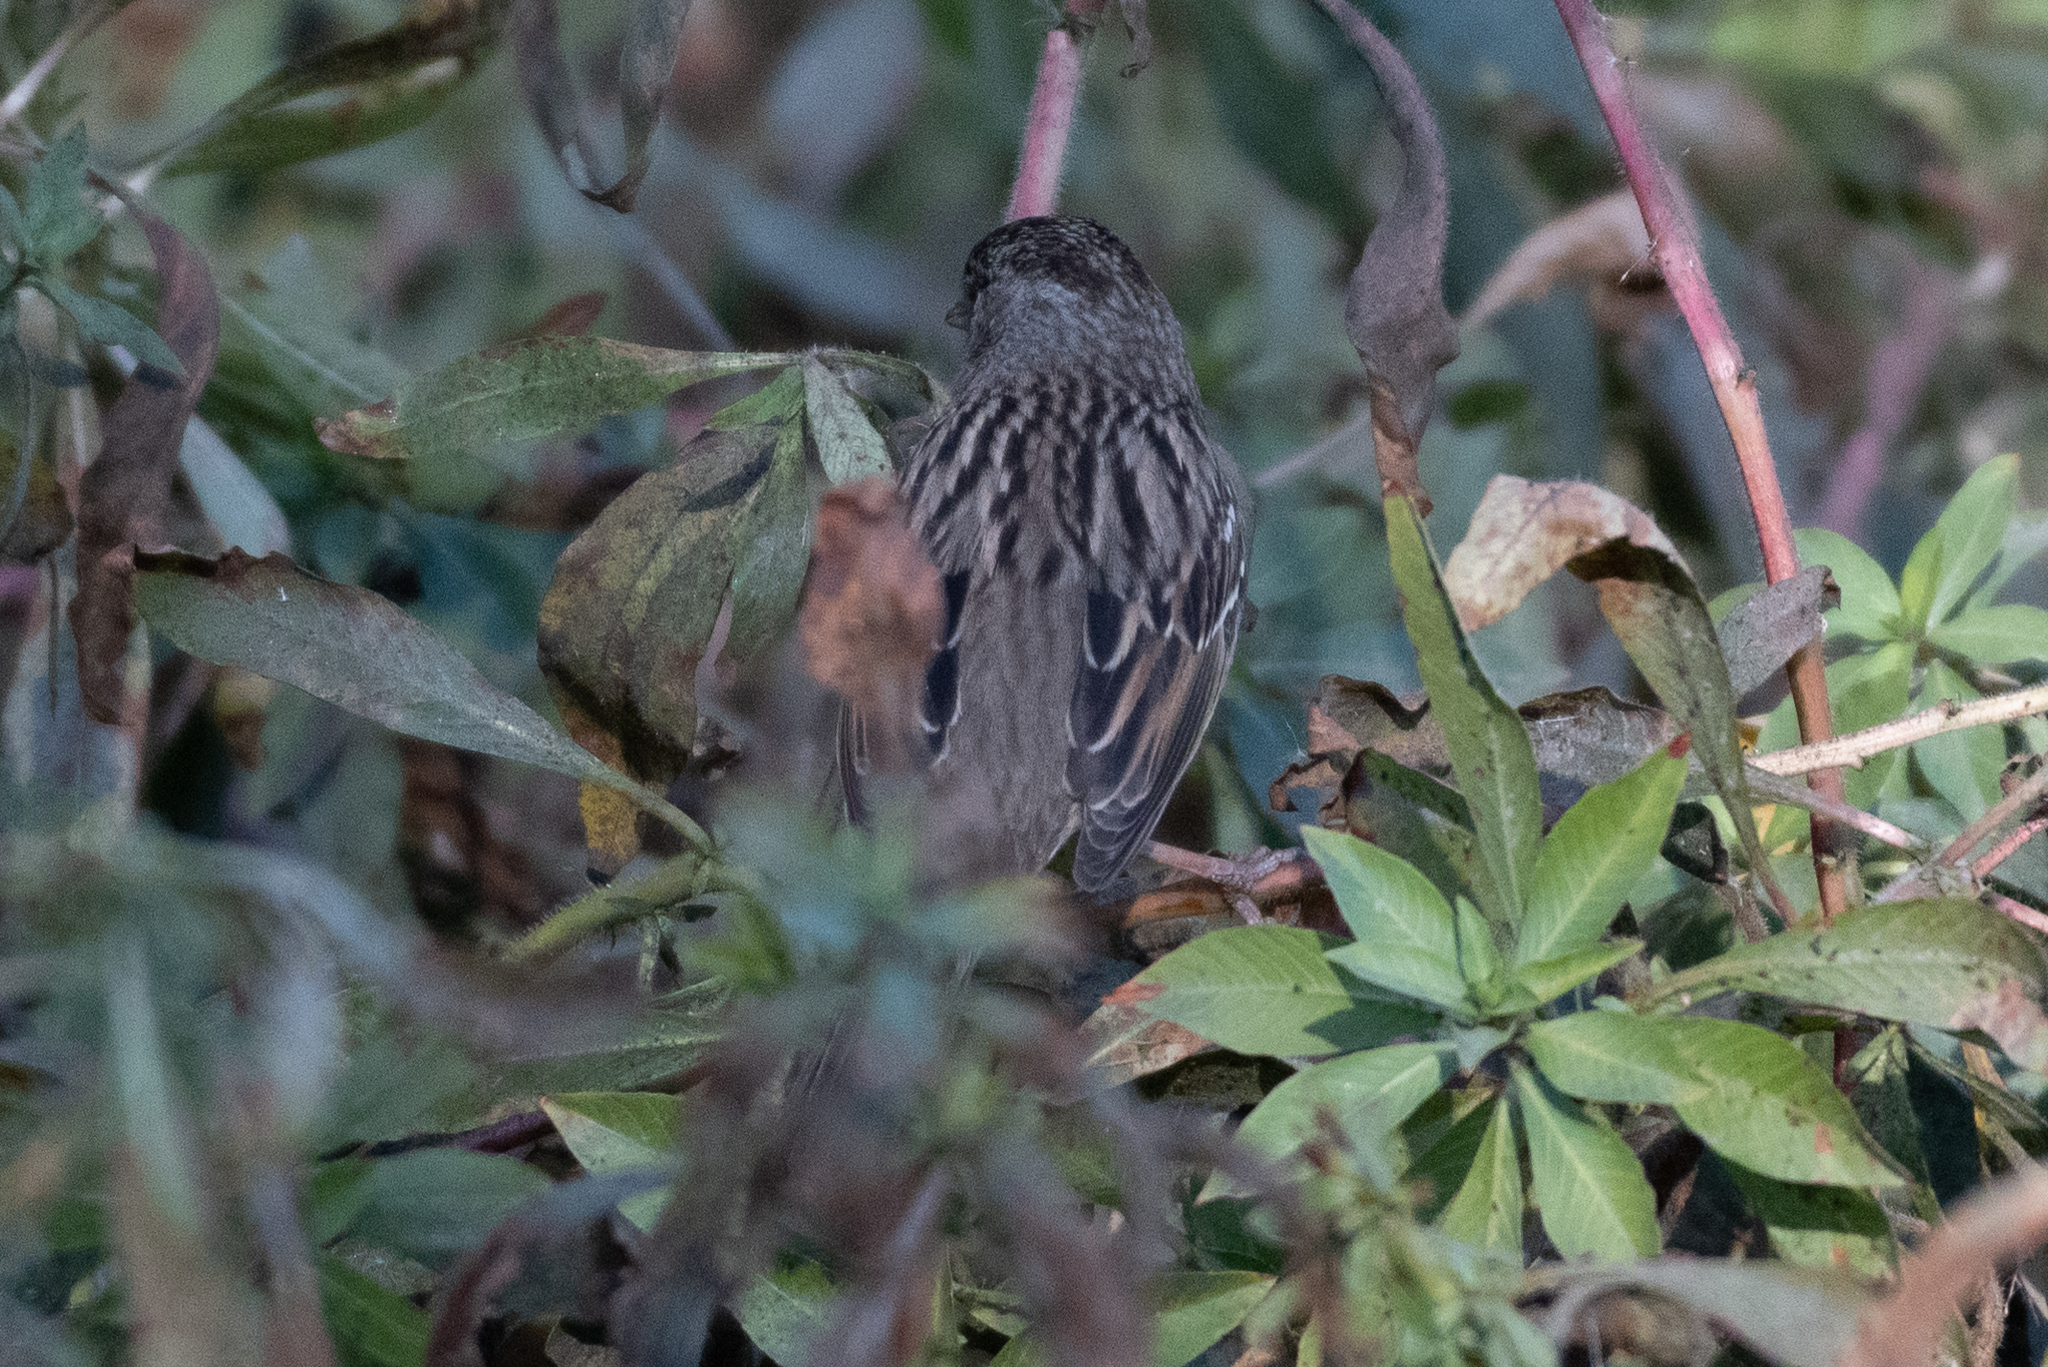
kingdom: Animalia
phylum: Chordata
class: Aves
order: Passeriformes
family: Passerellidae
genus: Zonotrichia
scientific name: Zonotrichia atricapilla
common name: Golden-crowned sparrow
